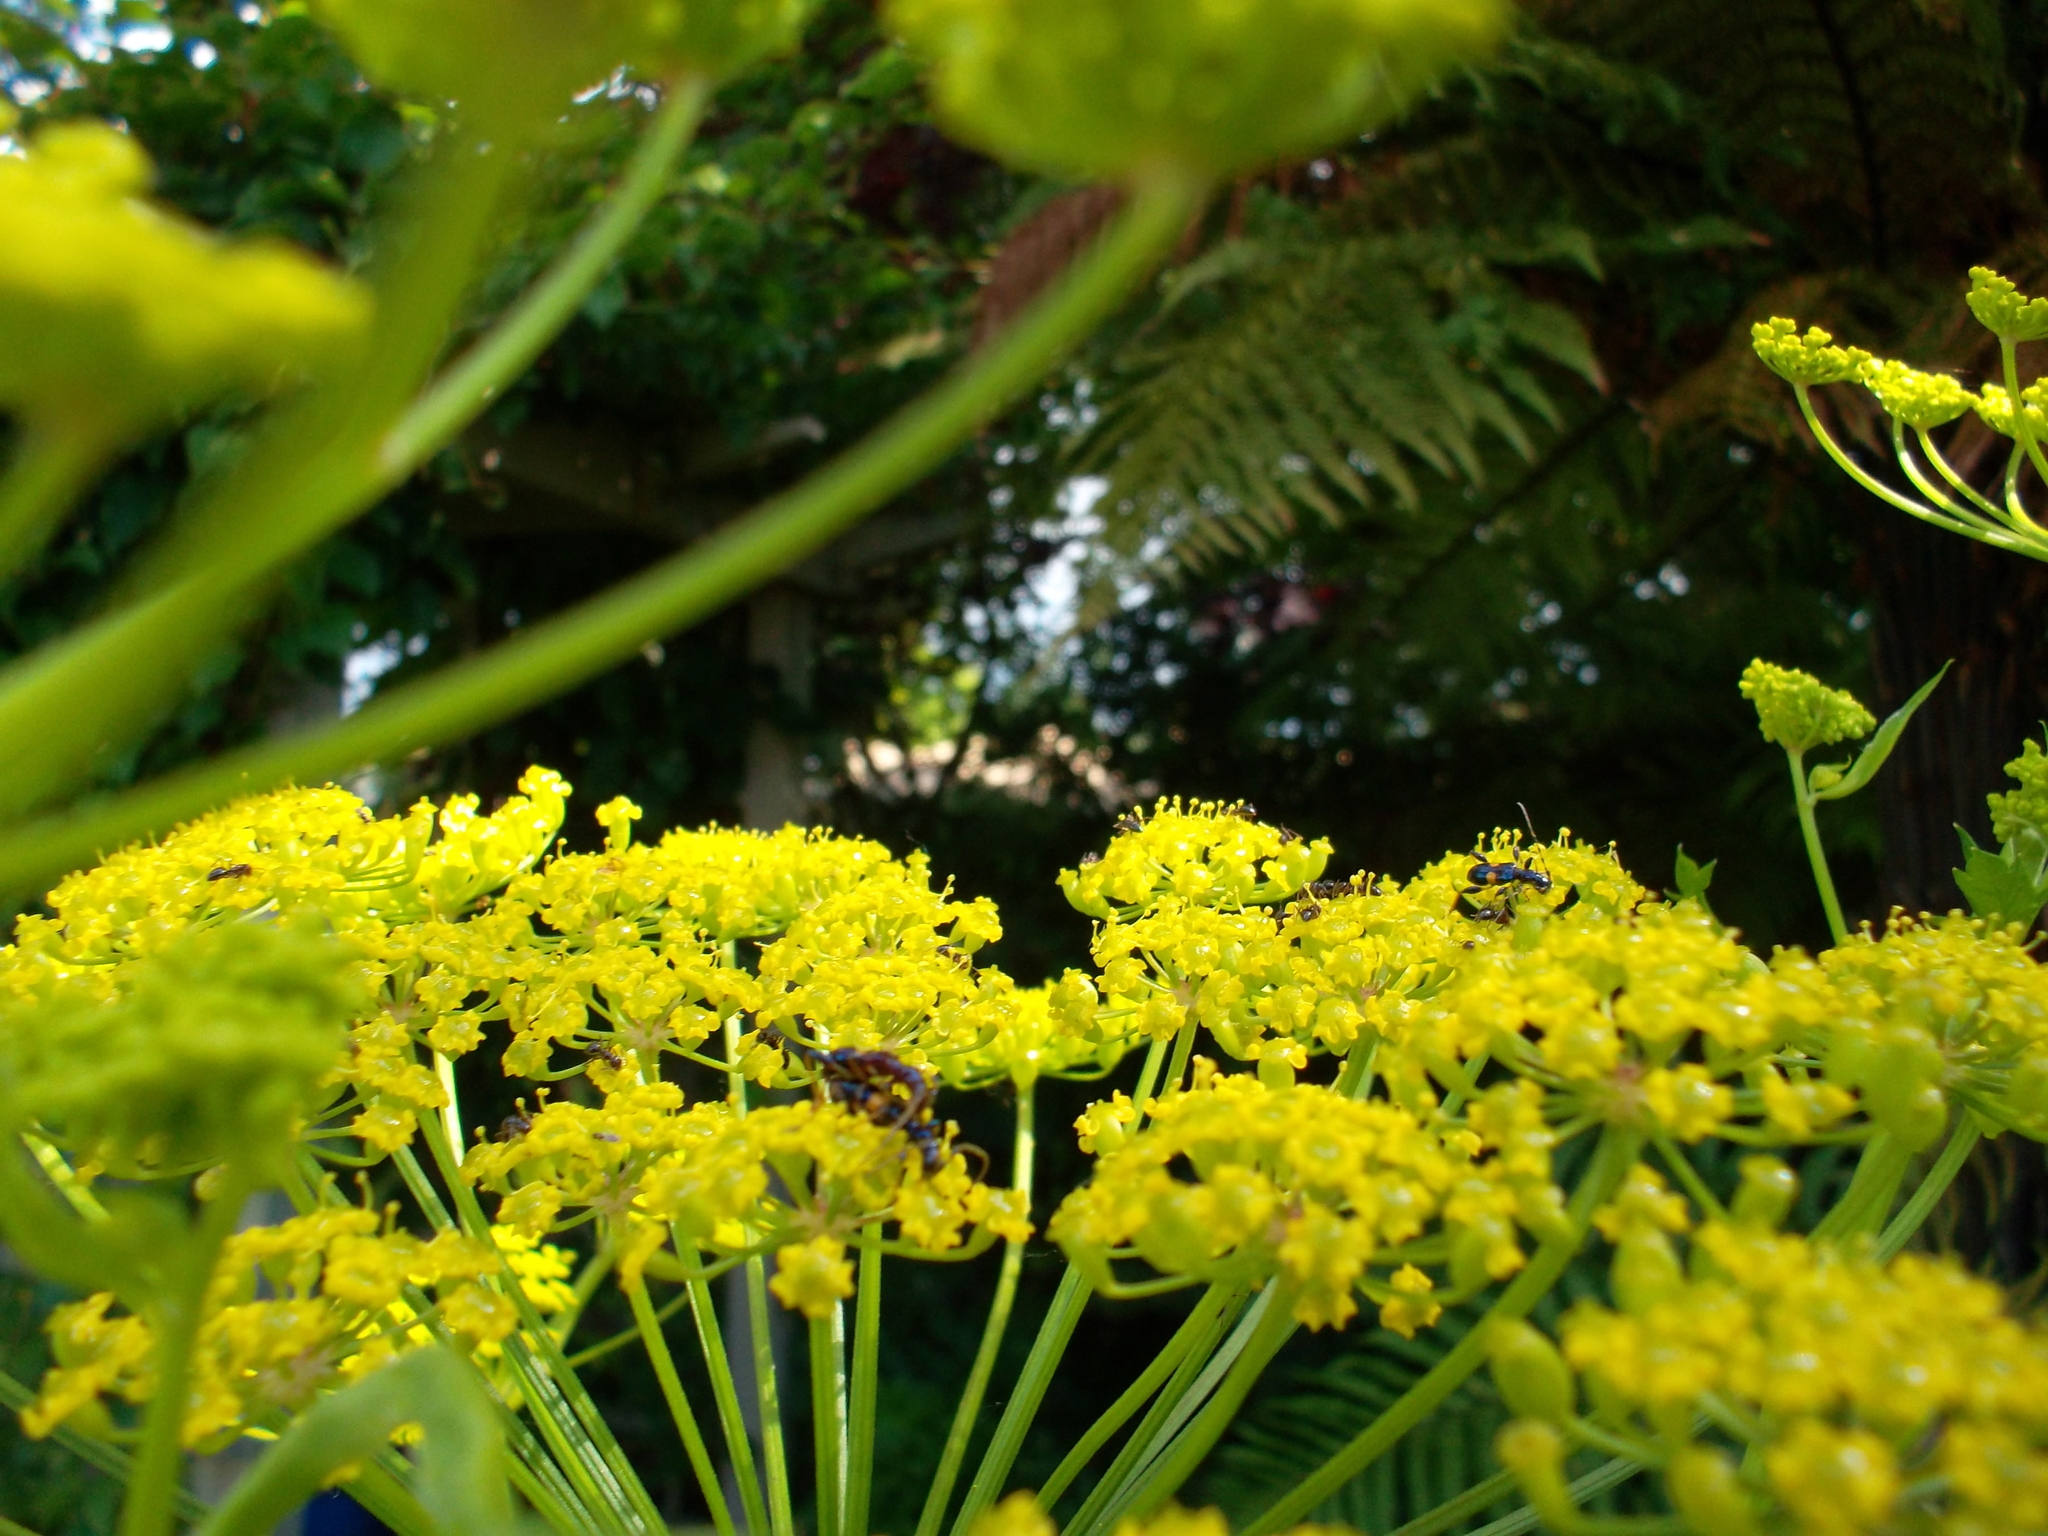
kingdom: Animalia
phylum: Arthropoda
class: Insecta
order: Coleoptera
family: Cerambycidae
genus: Zorion
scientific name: Zorion guttigerum
